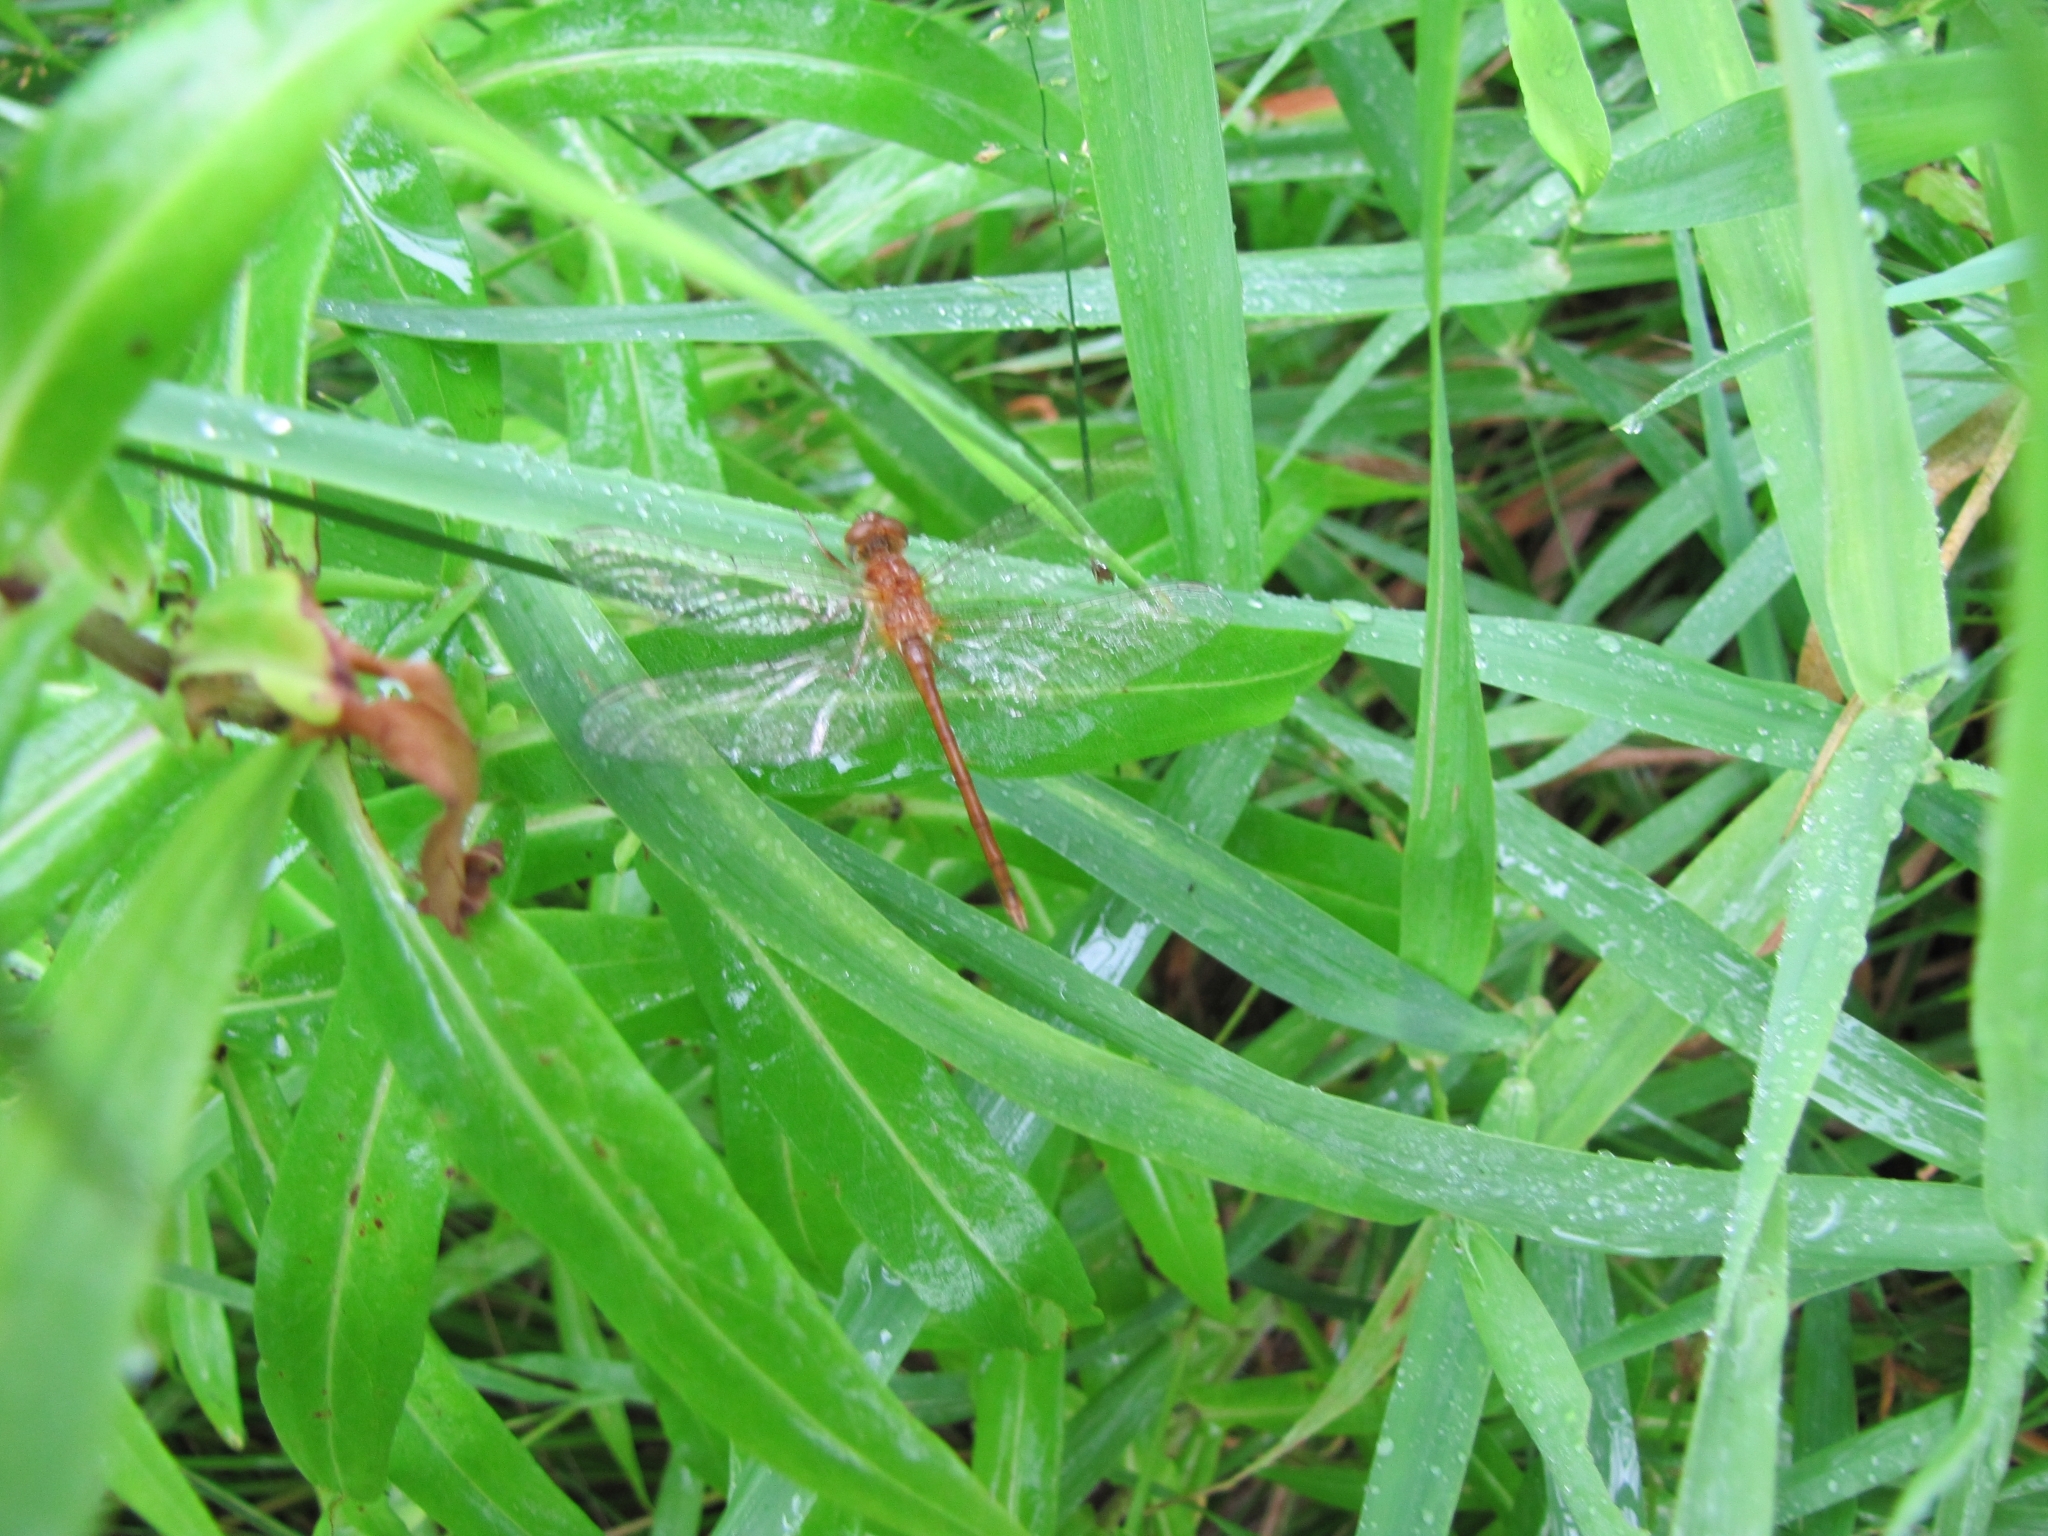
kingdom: Animalia
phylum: Arthropoda
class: Insecta
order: Odonata
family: Libellulidae
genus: Sympetrum
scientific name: Sympetrum vicinum
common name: Autumn meadowhawk
